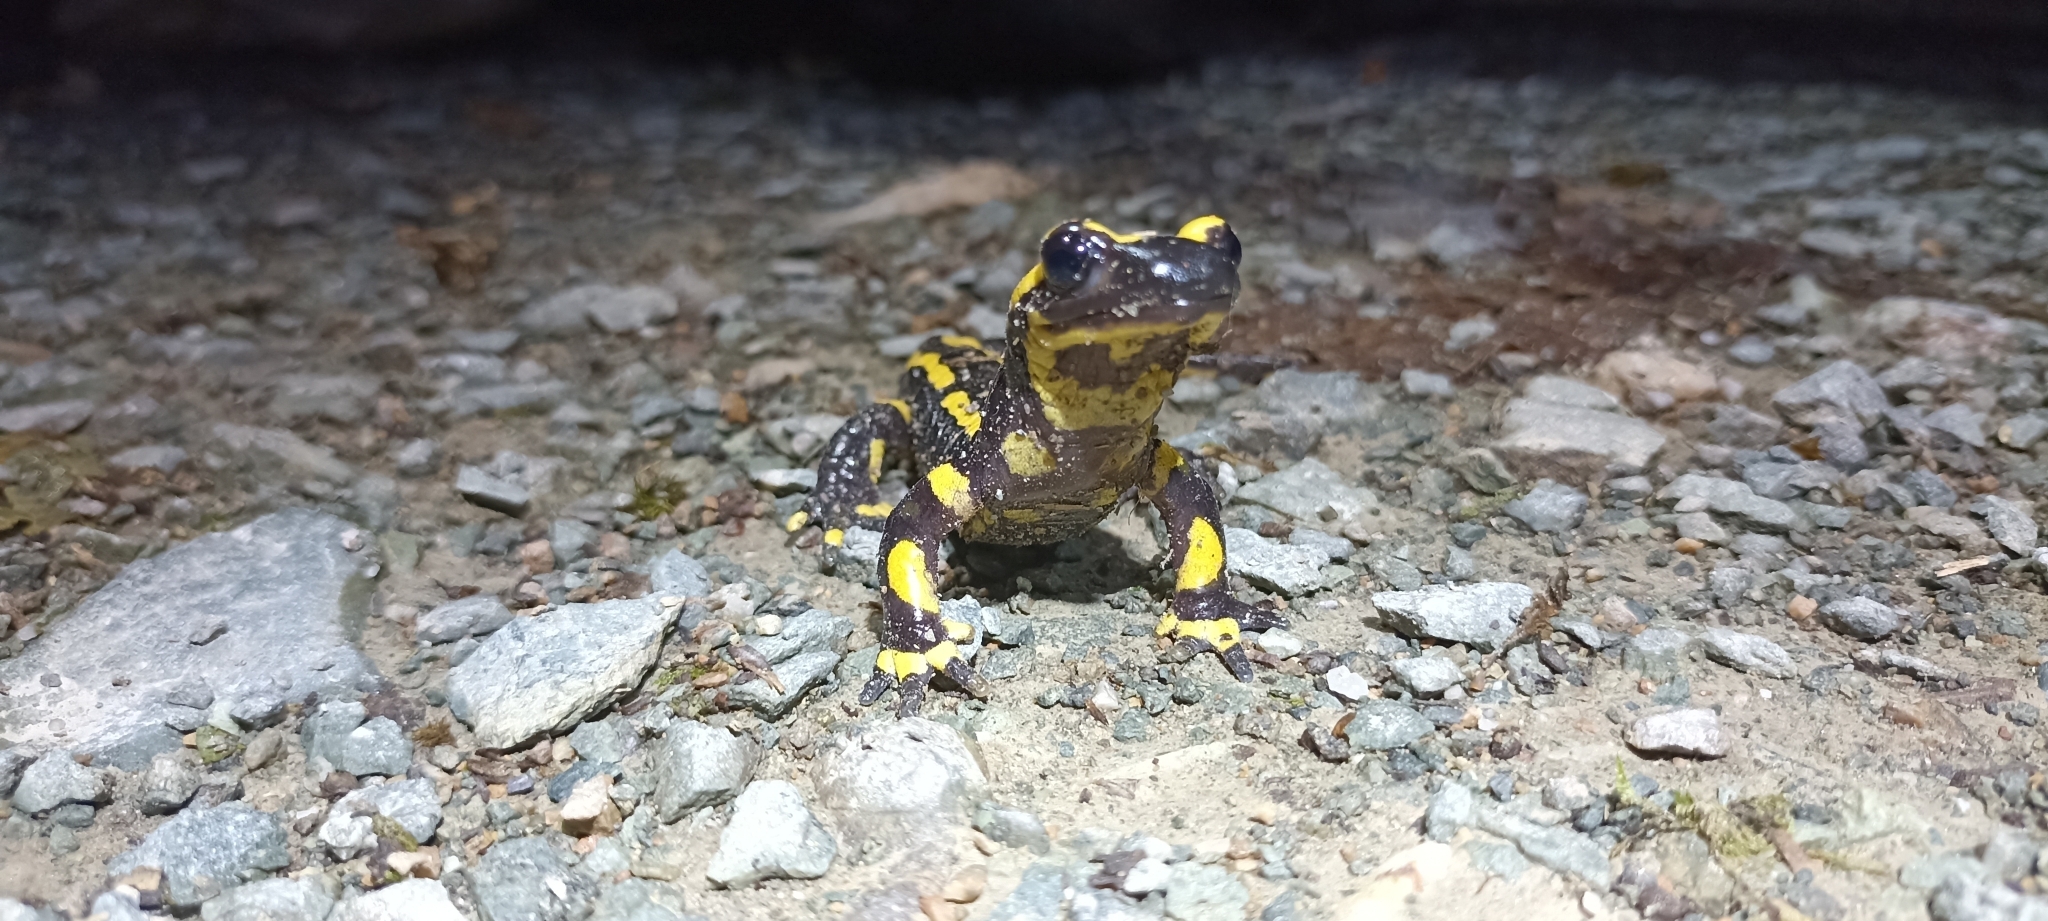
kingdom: Animalia
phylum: Chordata
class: Amphibia
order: Caudata
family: Salamandridae
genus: Salamandra
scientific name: Salamandra salamandra
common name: Fire salamander
